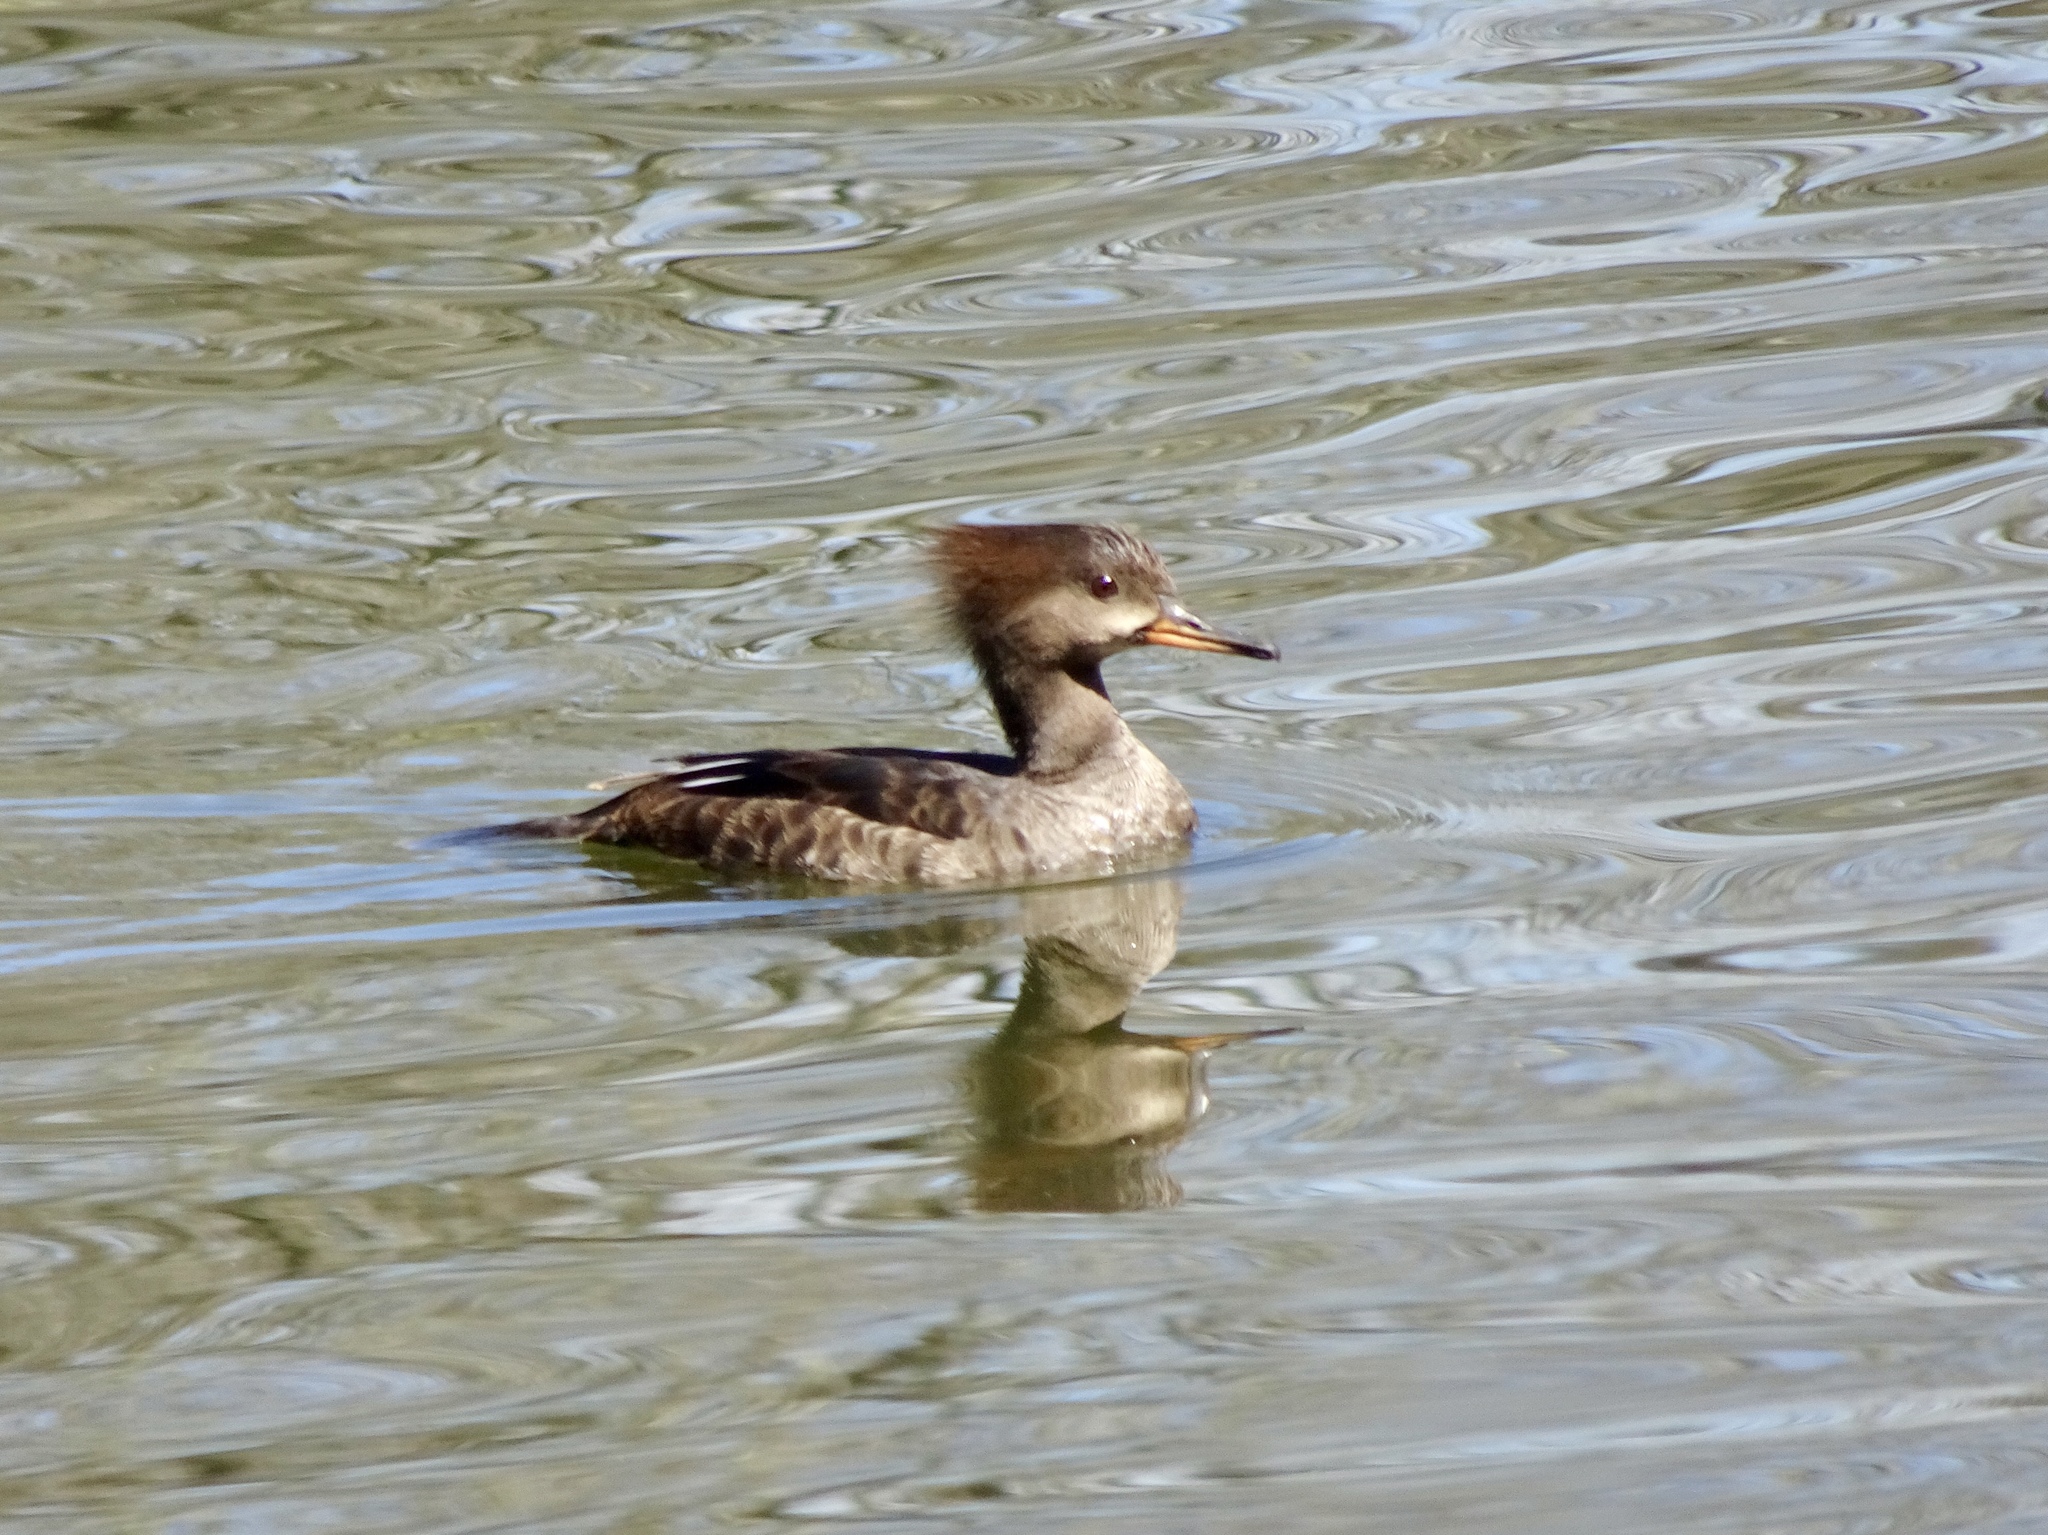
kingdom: Animalia
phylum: Chordata
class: Aves
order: Anseriformes
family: Anatidae
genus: Lophodytes
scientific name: Lophodytes cucullatus
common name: Hooded merganser
